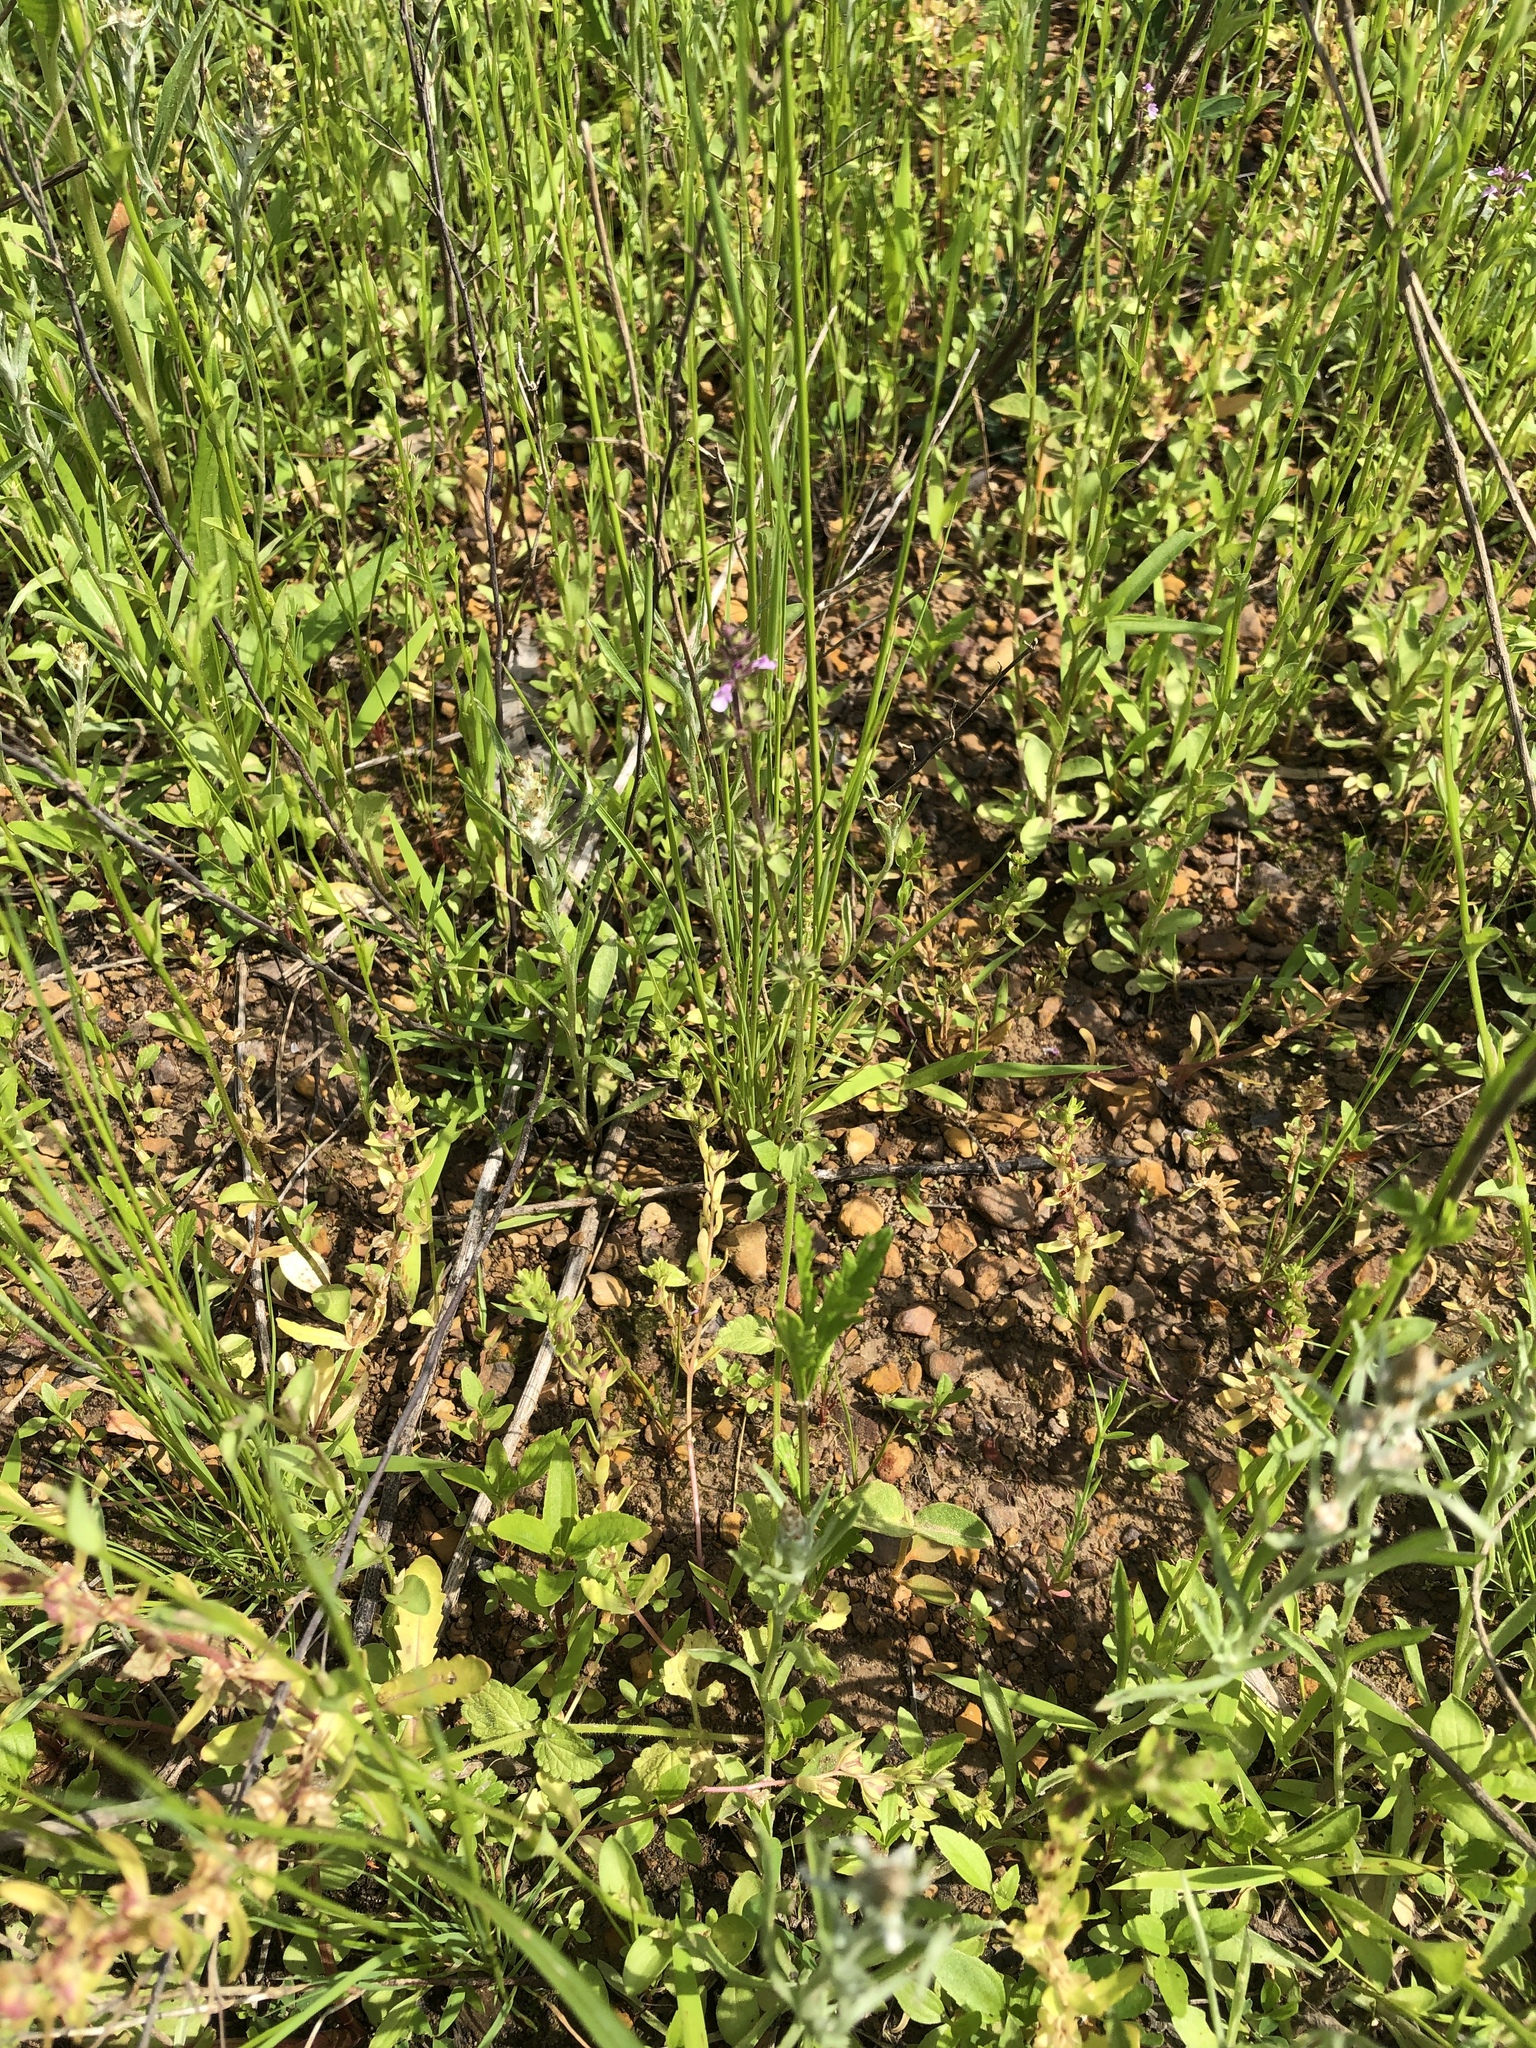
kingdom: Plantae
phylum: Tracheophyta
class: Magnoliopsida
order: Lamiales
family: Lamiaceae
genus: Stachys
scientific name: Stachys
